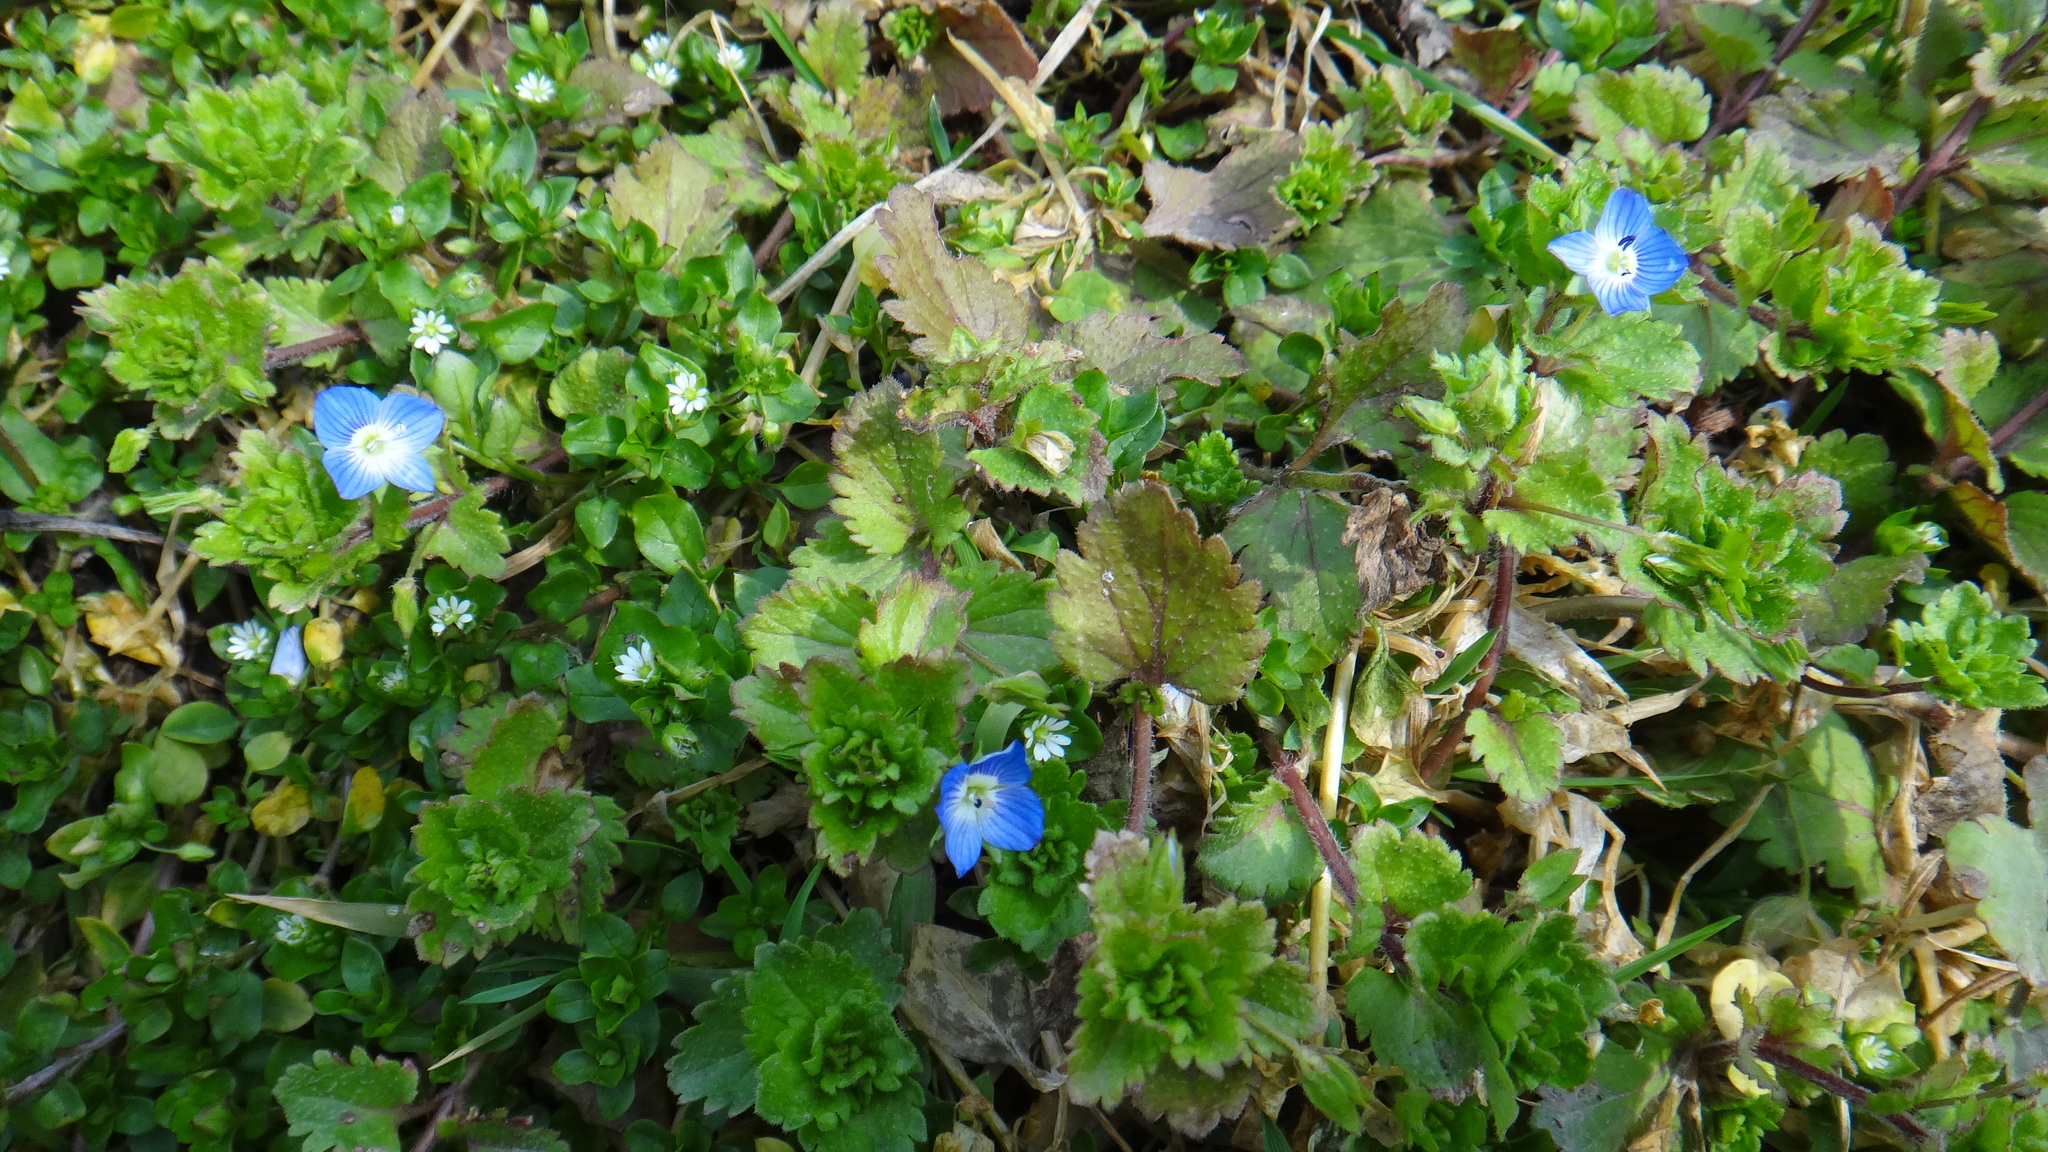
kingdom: Plantae
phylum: Tracheophyta
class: Magnoliopsida
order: Lamiales
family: Plantaginaceae
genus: Veronica
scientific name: Veronica persica
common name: Common field-speedwell
